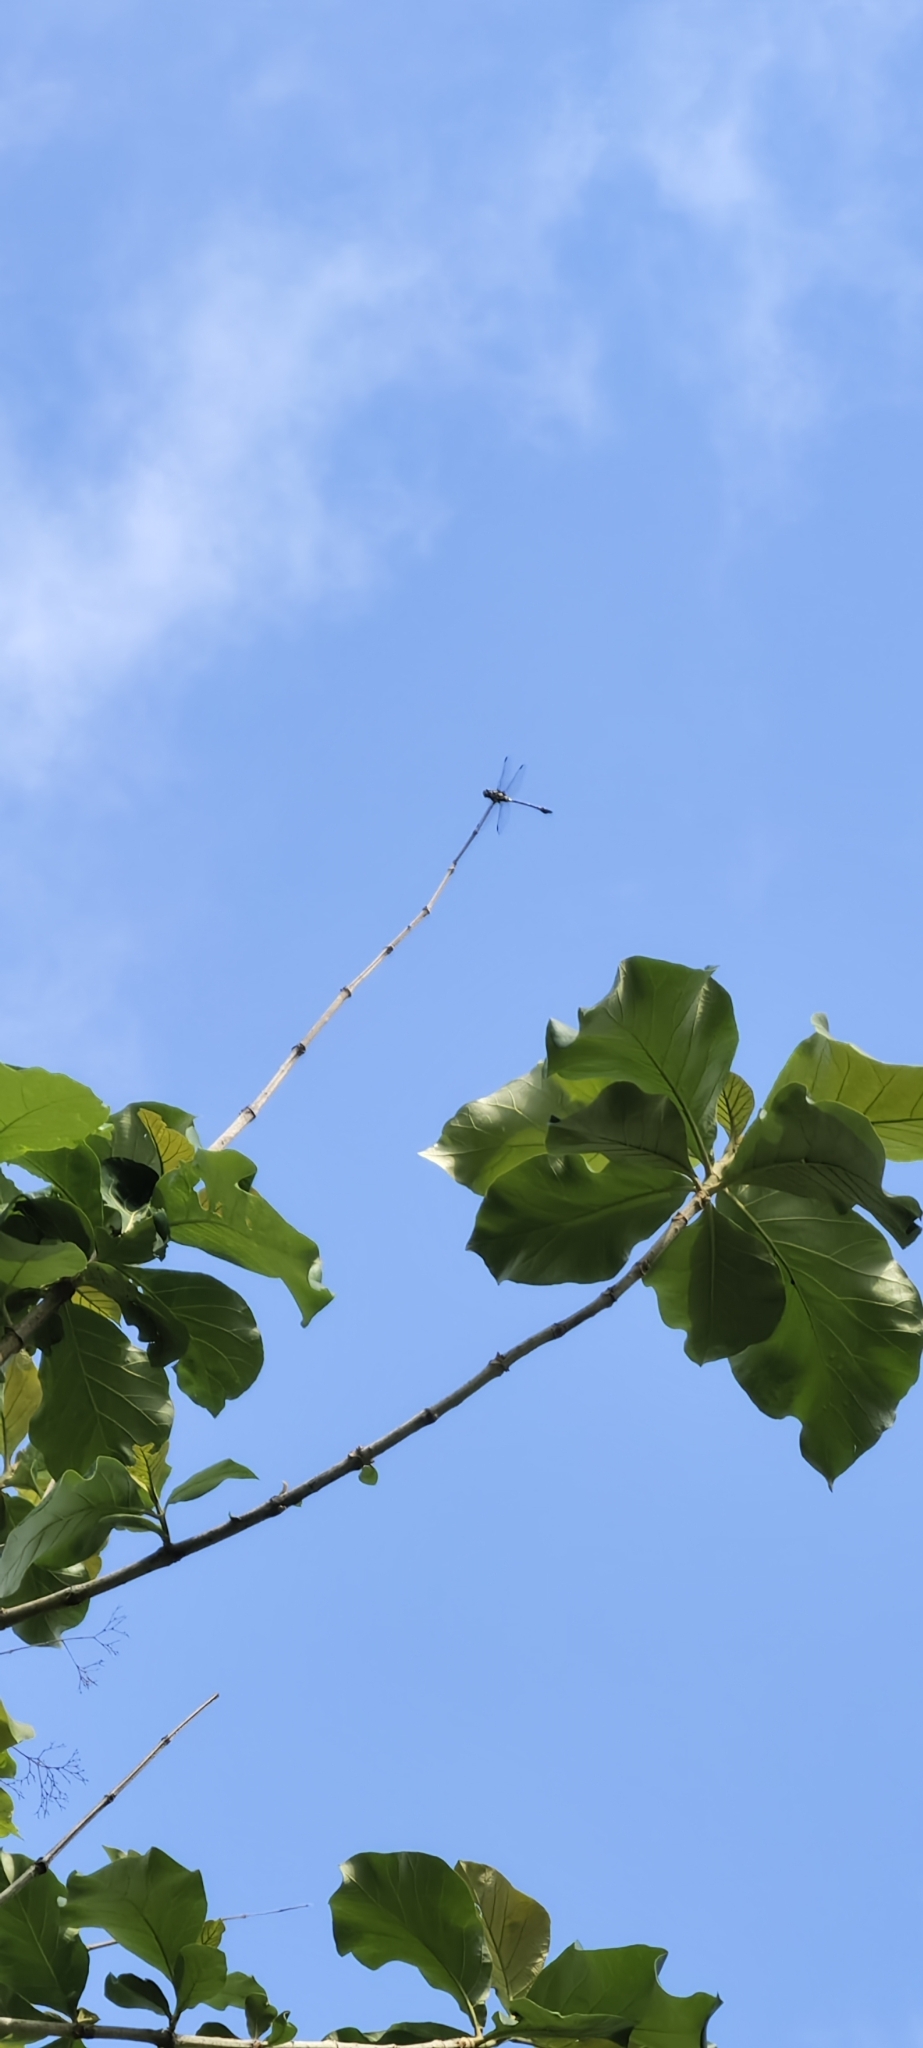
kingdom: Animalia
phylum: Arthropoda
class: Insecta
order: Odonata
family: Gomphidae
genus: Ictinogomphus
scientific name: Ictinogomphus rapax
